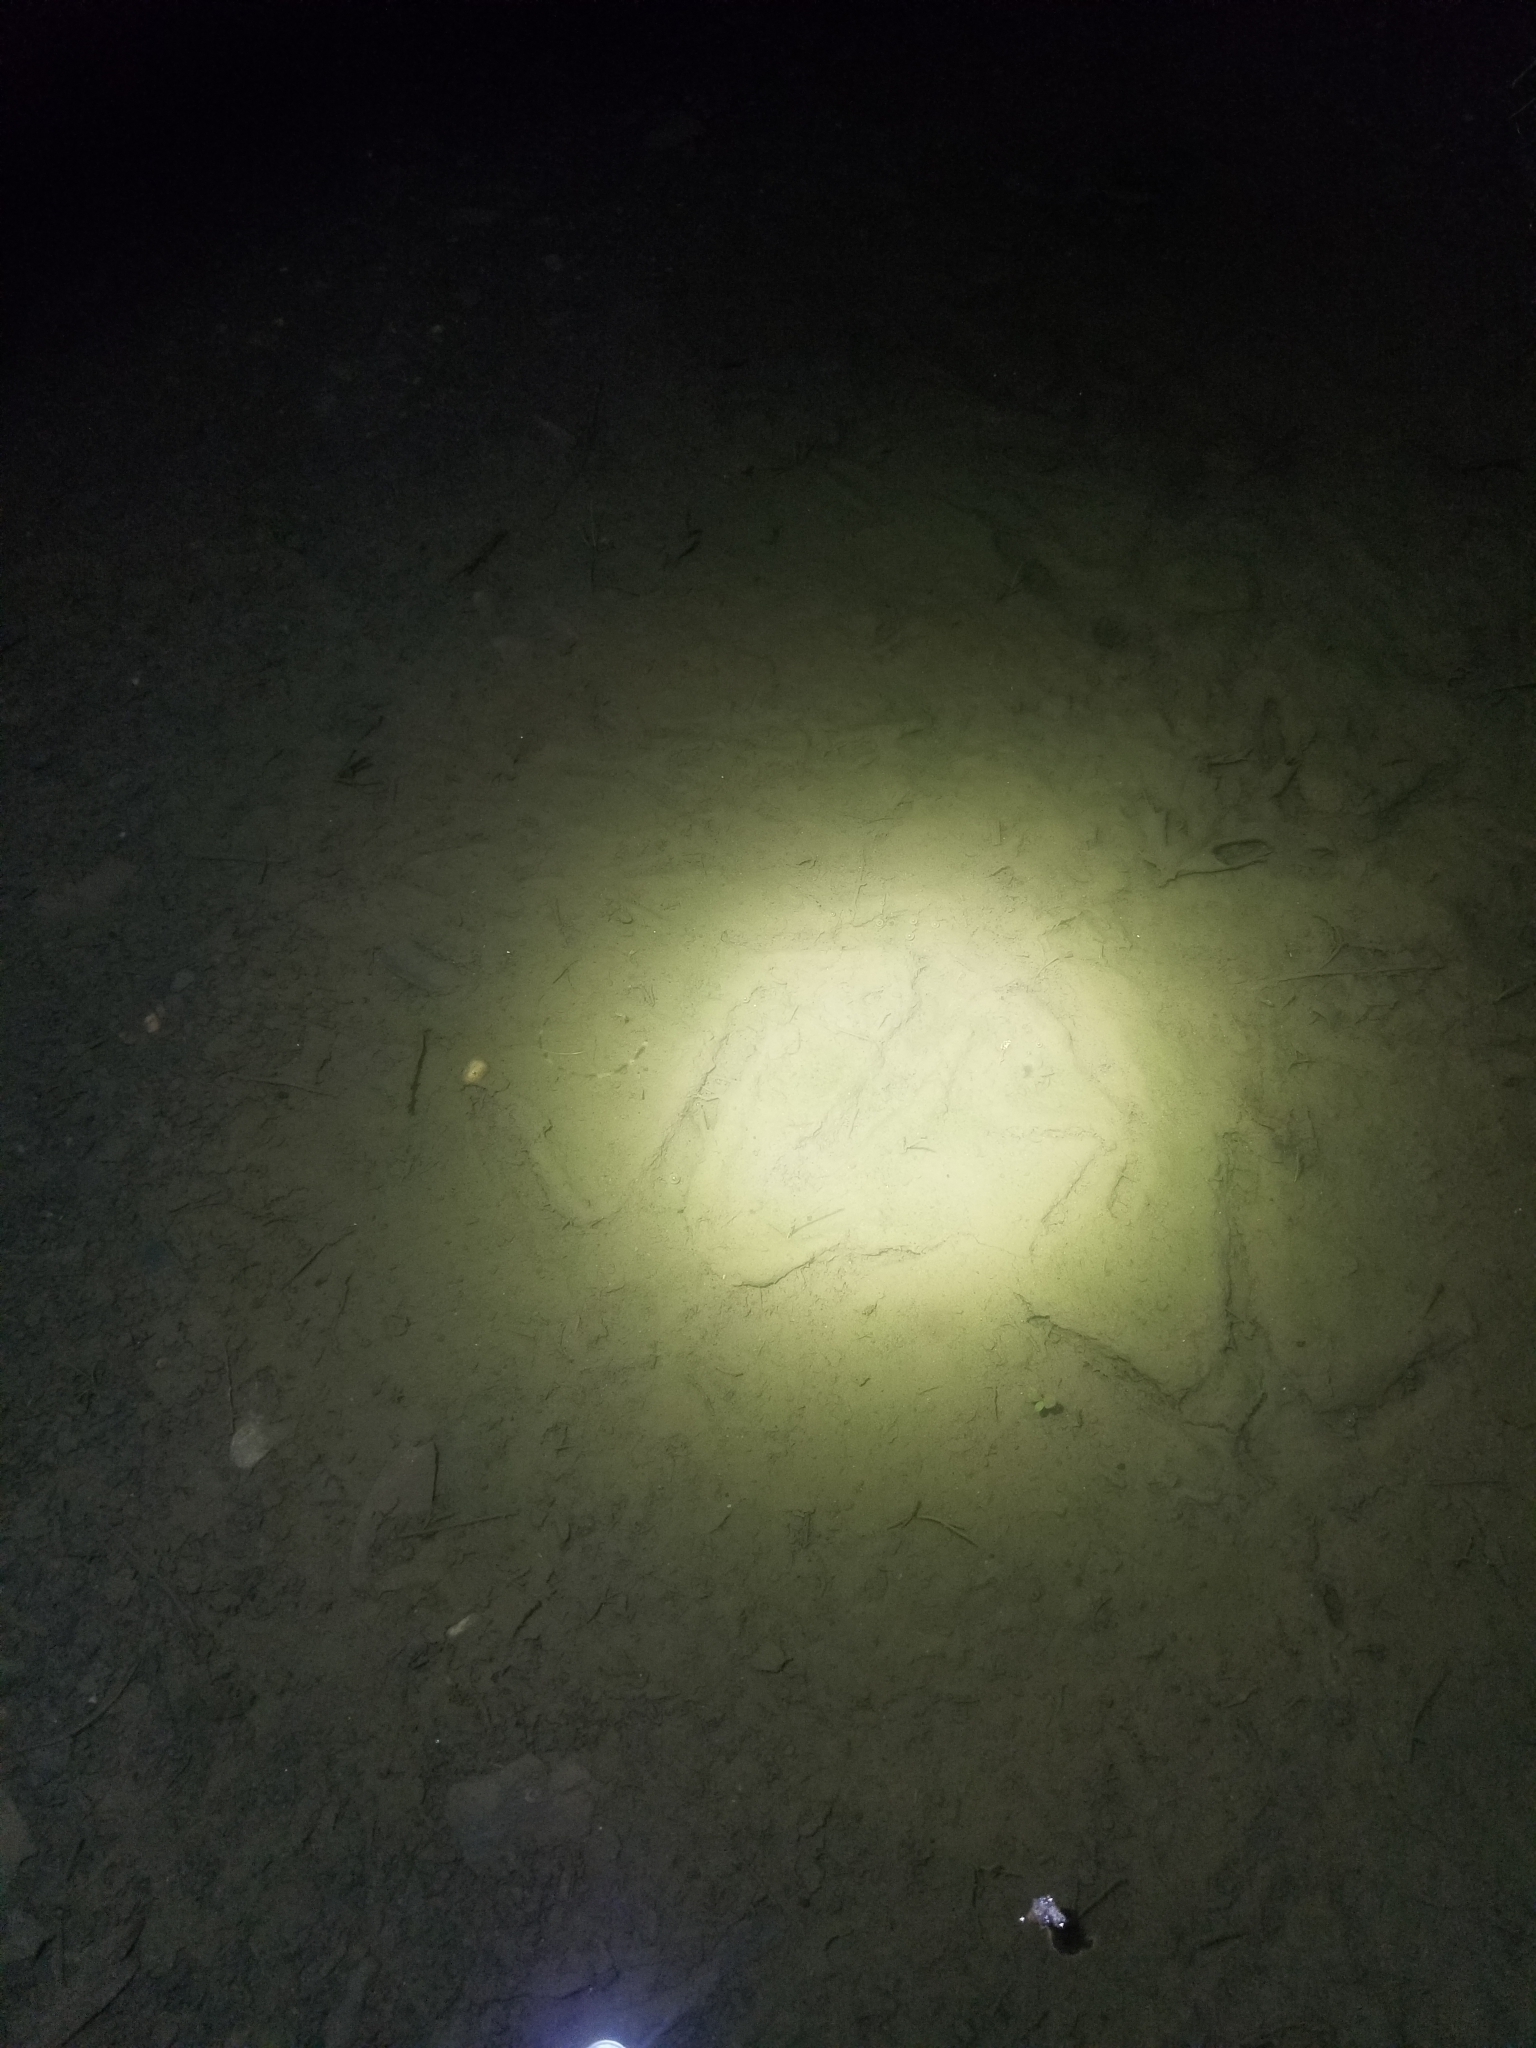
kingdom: Animalia
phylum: Chordata
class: Aves
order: Galliformes
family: Phasianidae
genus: Meleagris
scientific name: Meleagris gallopavo
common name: Wild turkey
